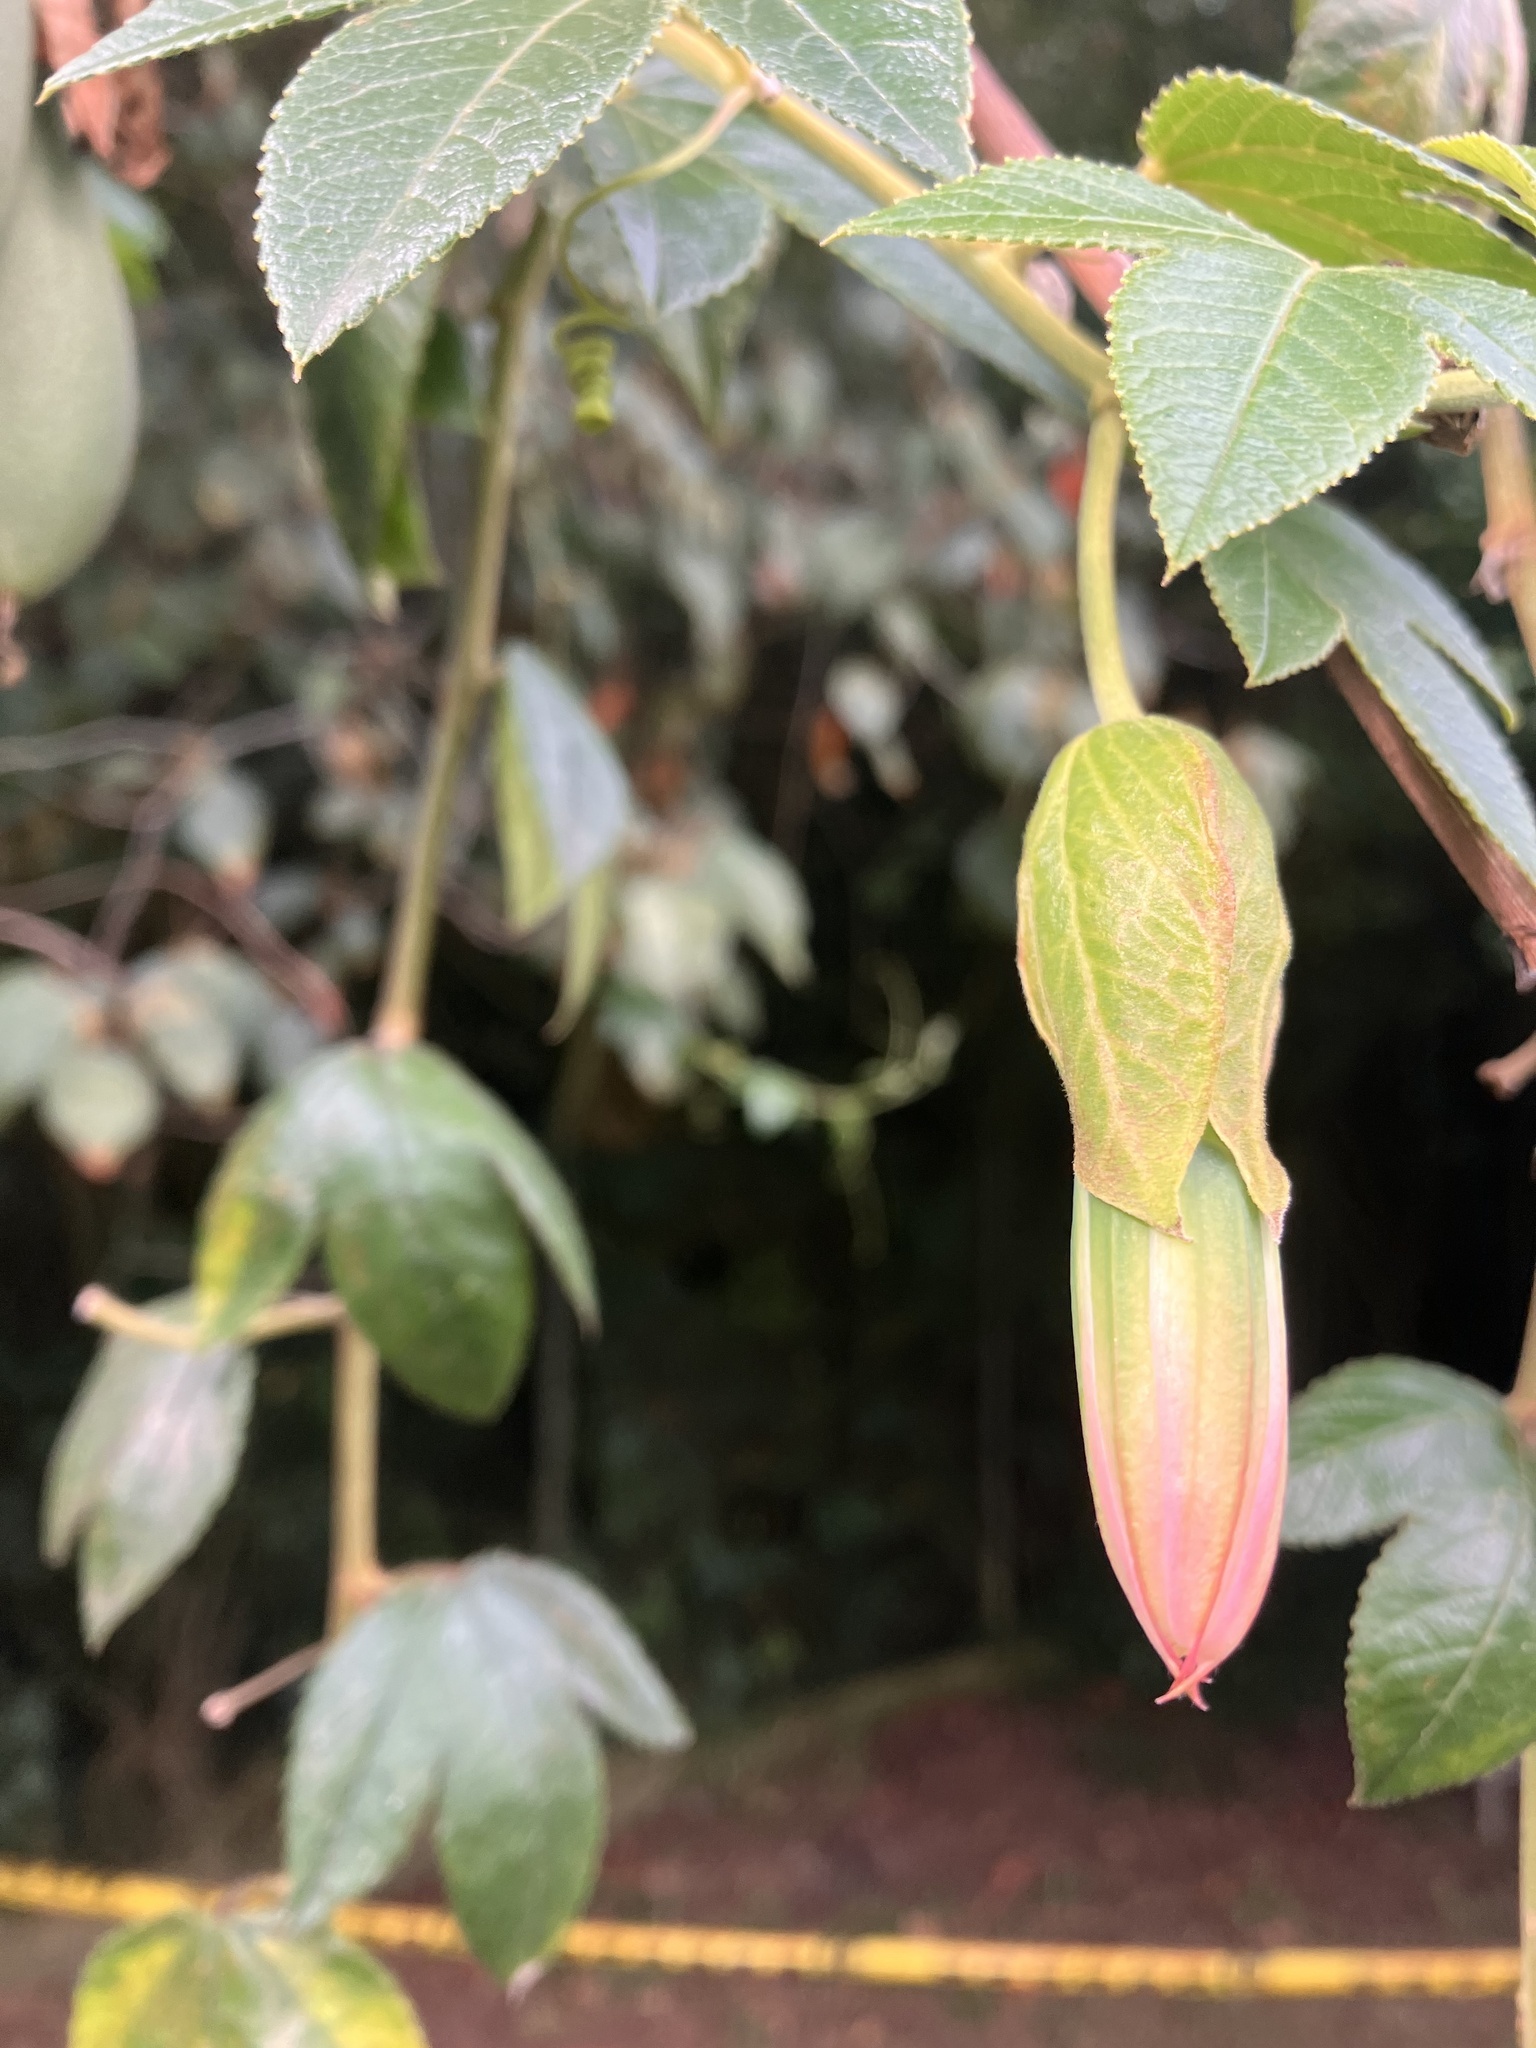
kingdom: Plantae
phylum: Tracheophyta
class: Magnoliopsida
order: Malpighiales
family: Passifloraceae
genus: Passiflora
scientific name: Passiflora tarminiana
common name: Banana poka
